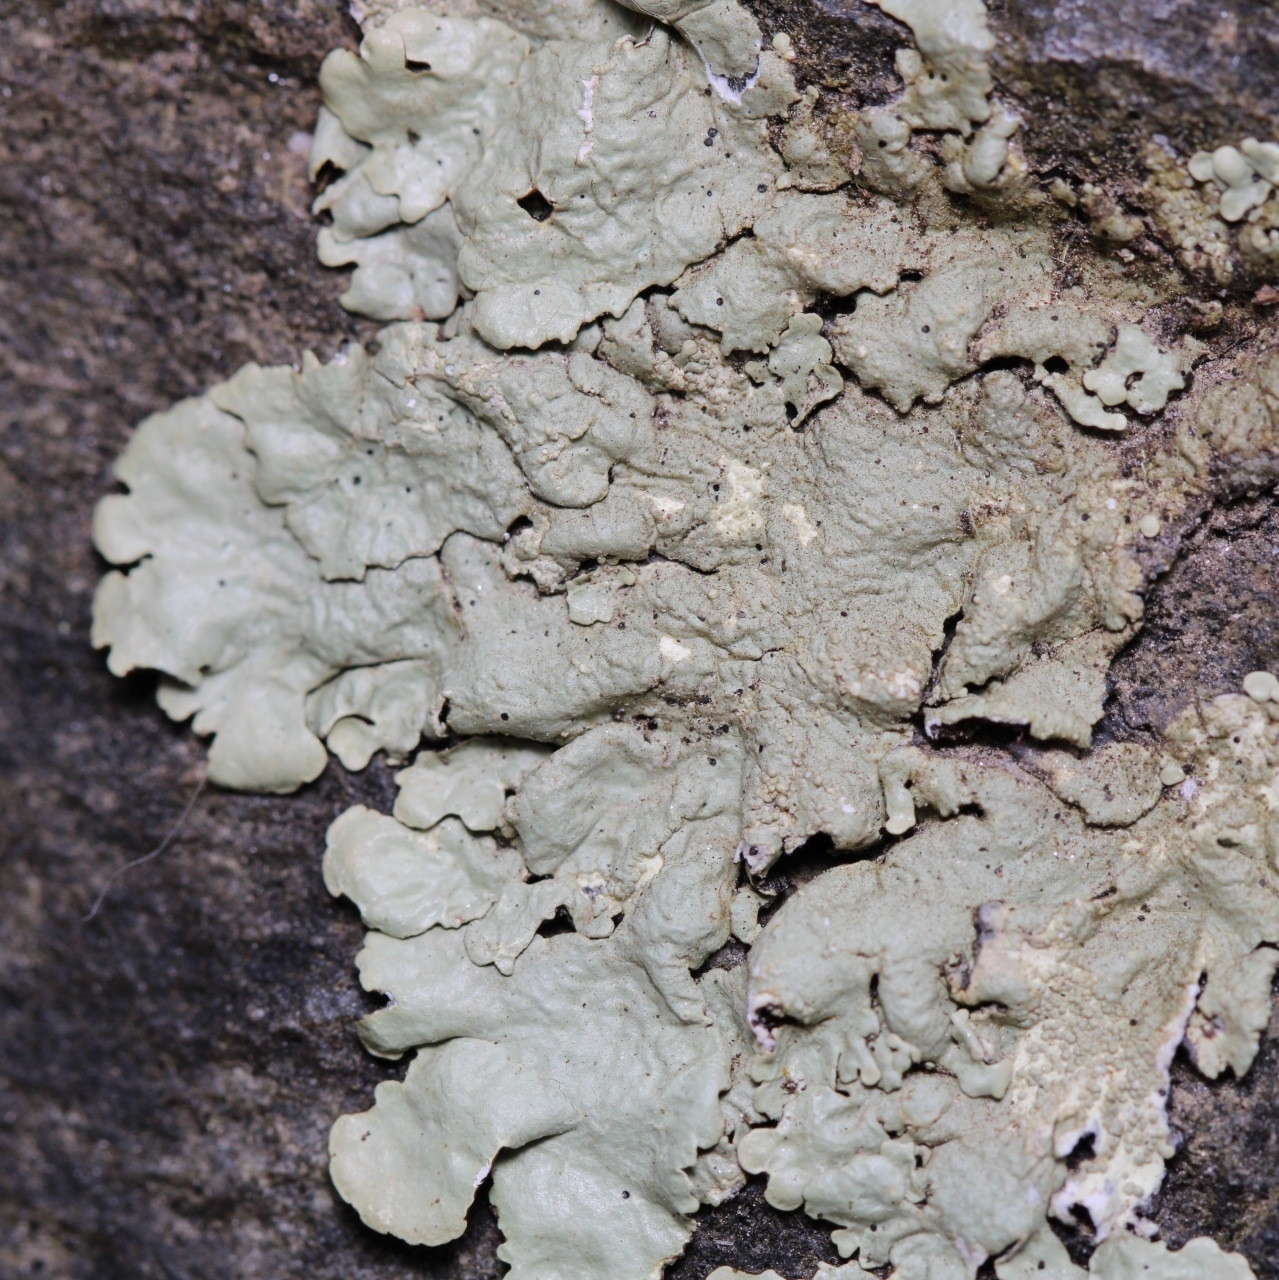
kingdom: Fungi
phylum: Ascomycota
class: Lecanoromycetes
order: Lecanorales
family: Parmeliaceae
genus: Flavoparmelia
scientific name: Flavoparmelia baltimorensis
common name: Rock greenshield
